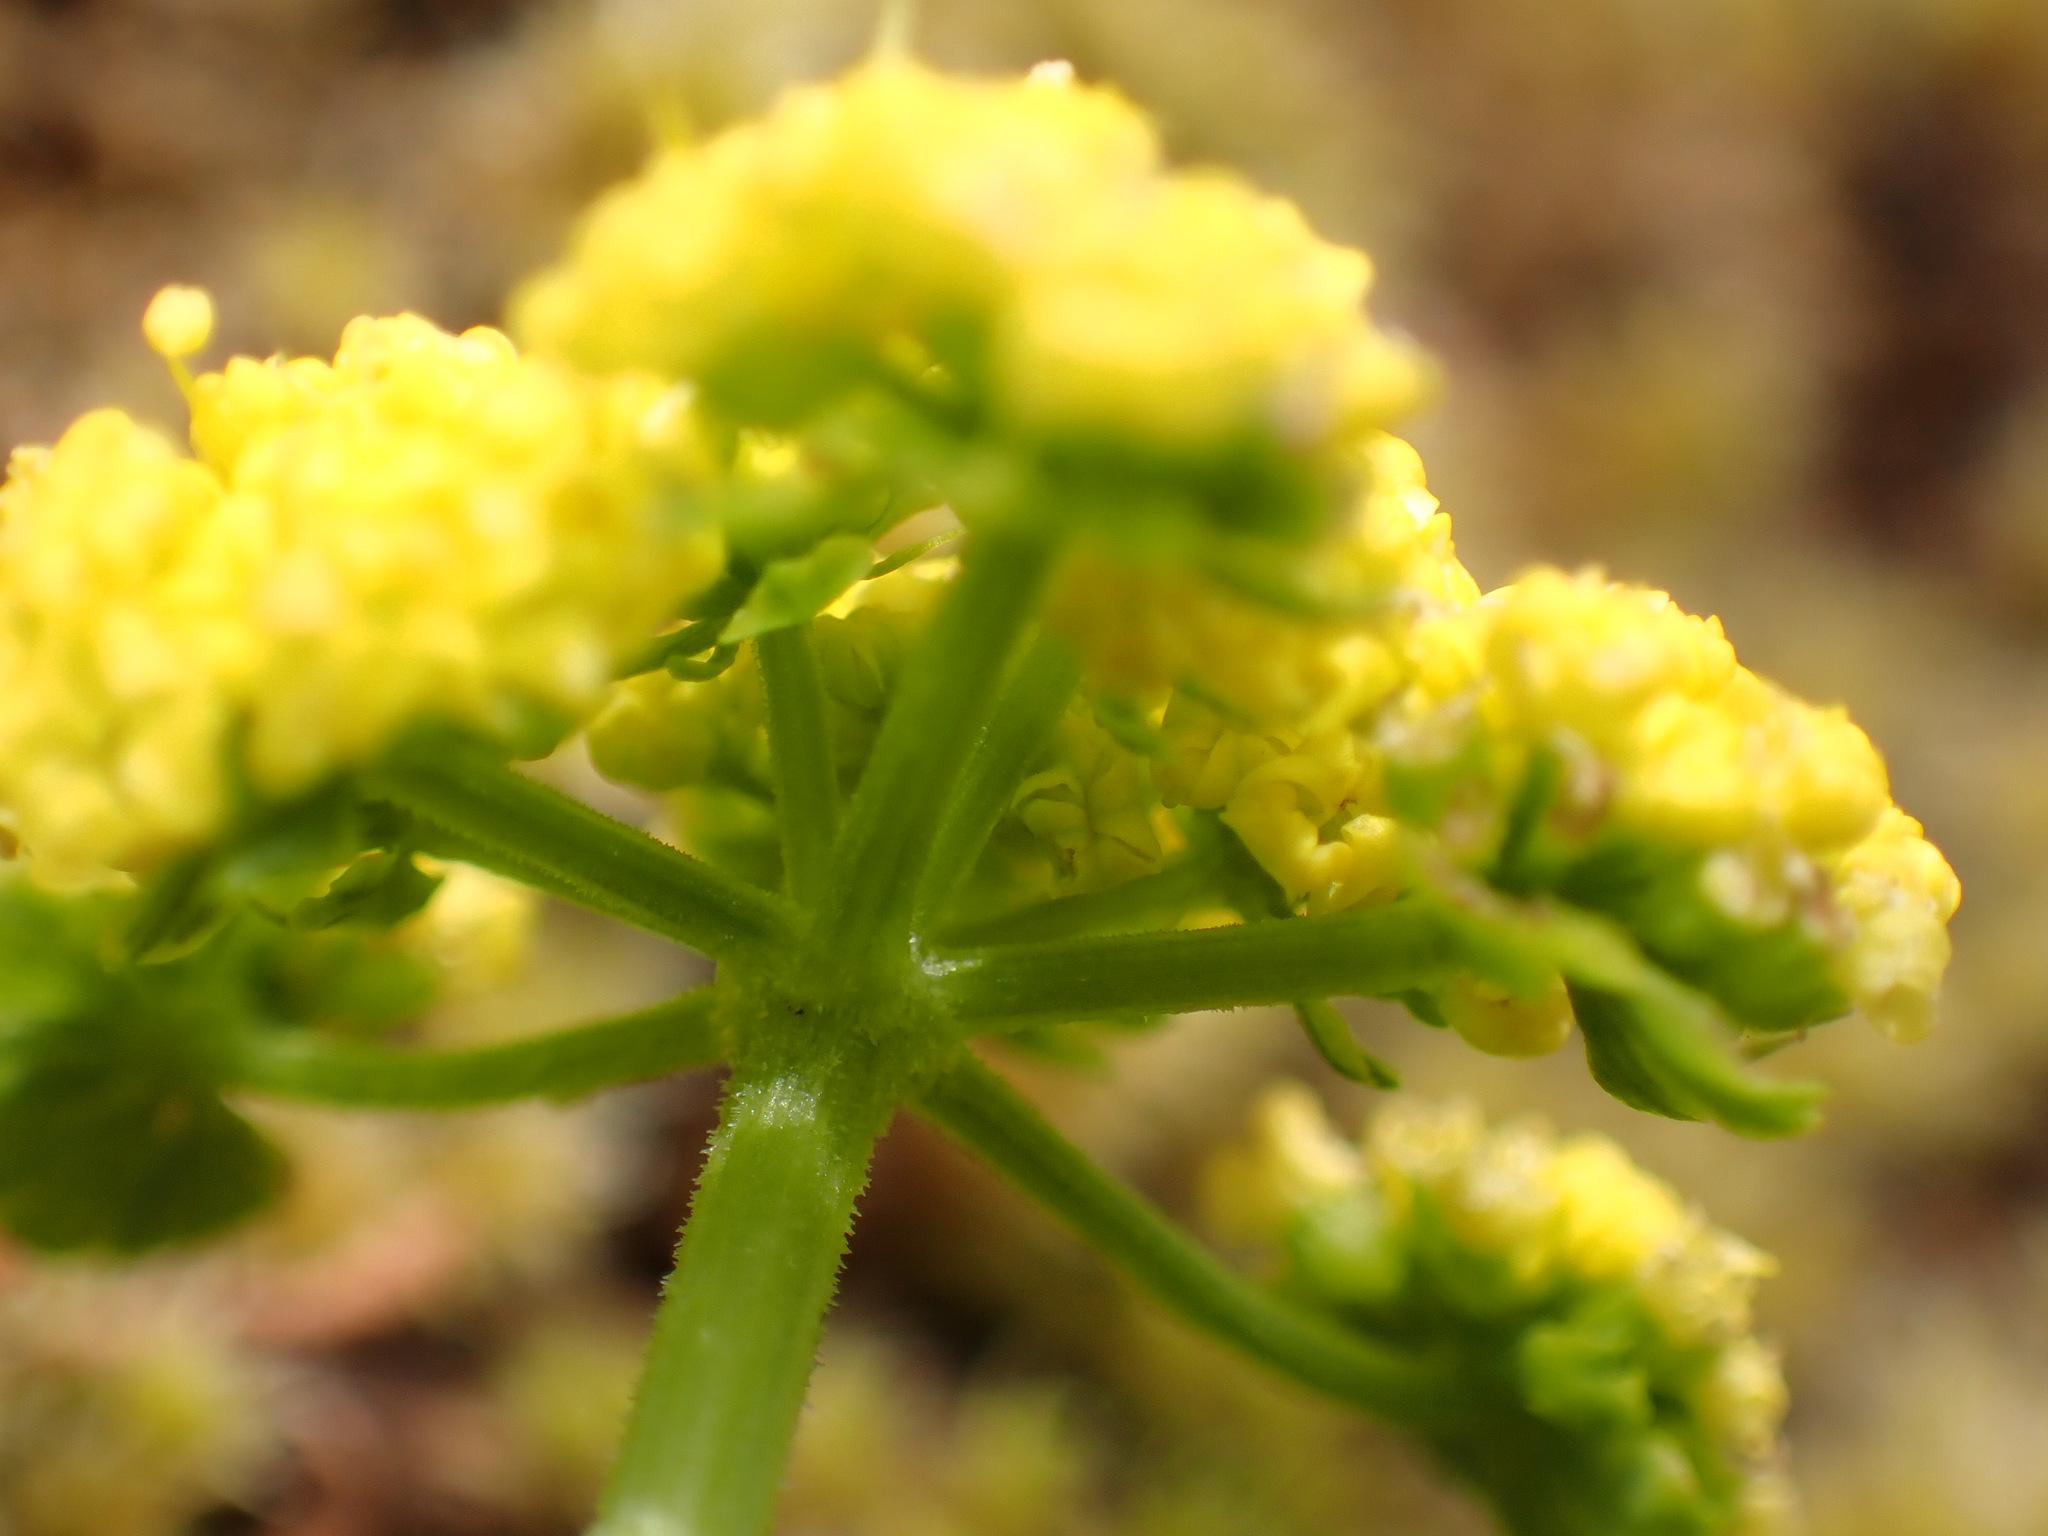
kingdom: Plantae
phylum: Tracheophyta
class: Magnoliopsida
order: Apiales
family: Apiaceae
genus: Lomatium
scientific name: Lomatium utriculatum
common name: Fine-leaf desert-parsley
